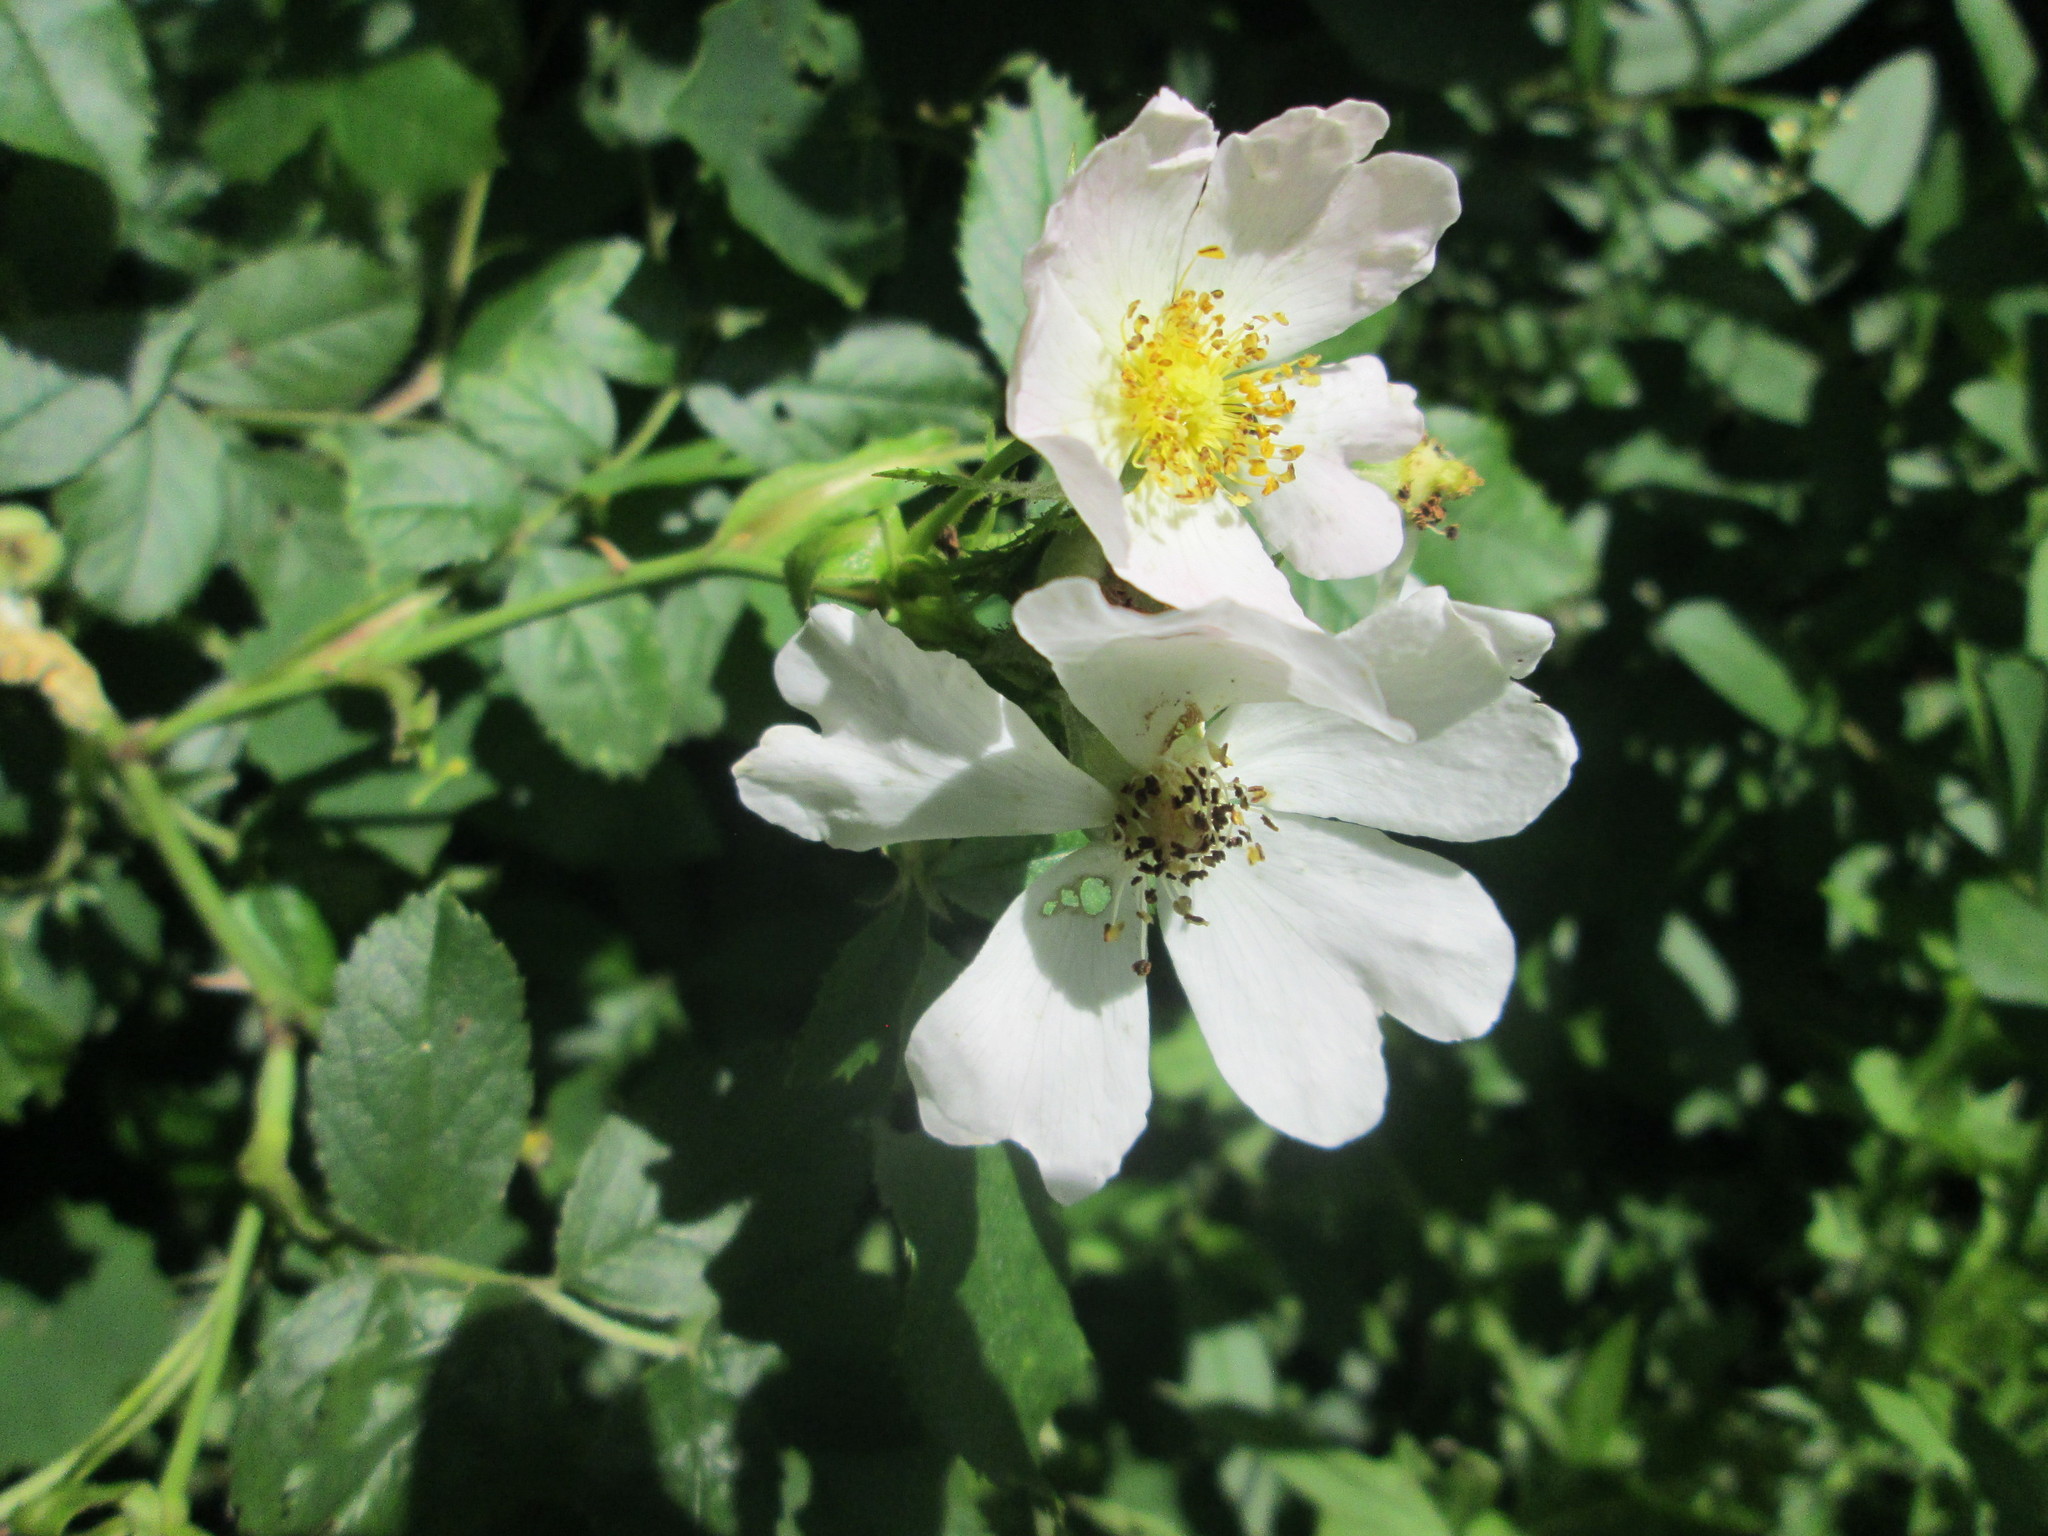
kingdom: Plantae
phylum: Tracheophyta
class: Magnoliopsida
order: Rosales
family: Rosaceae
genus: Rosa
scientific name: Rosa canina
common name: Dog rose
